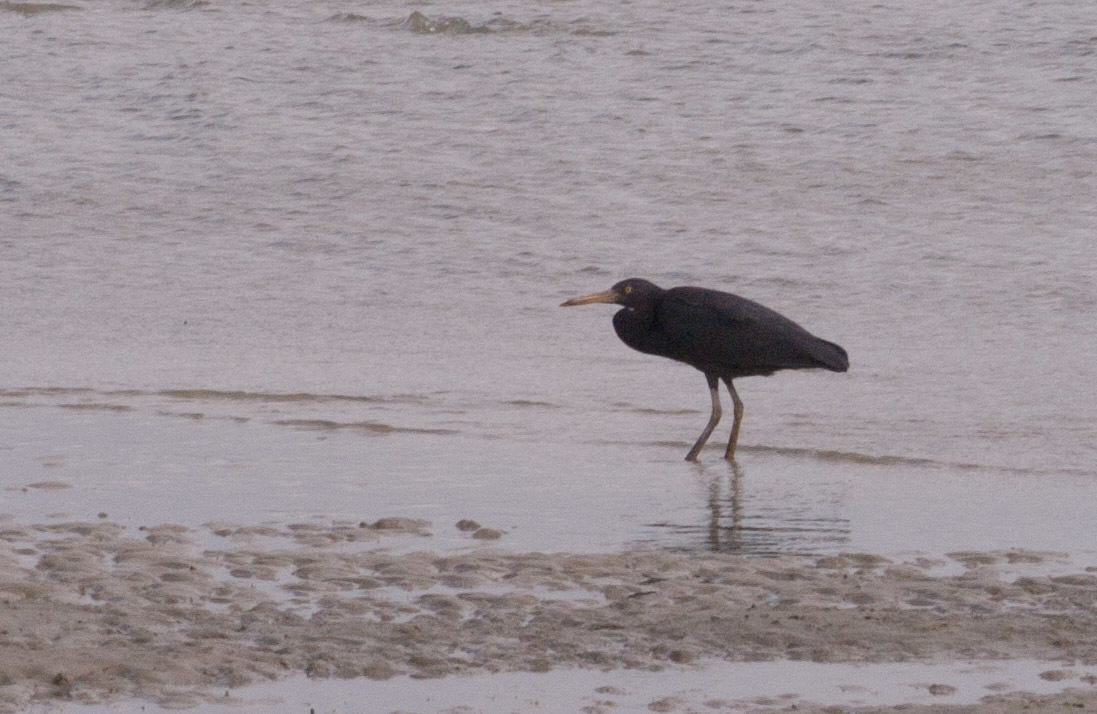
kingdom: Animalia
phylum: Chordata
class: Aves
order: Pelecaniformes
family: Ardeidae
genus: Egretta
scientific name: Egretta sacra
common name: Pacific reef heron
